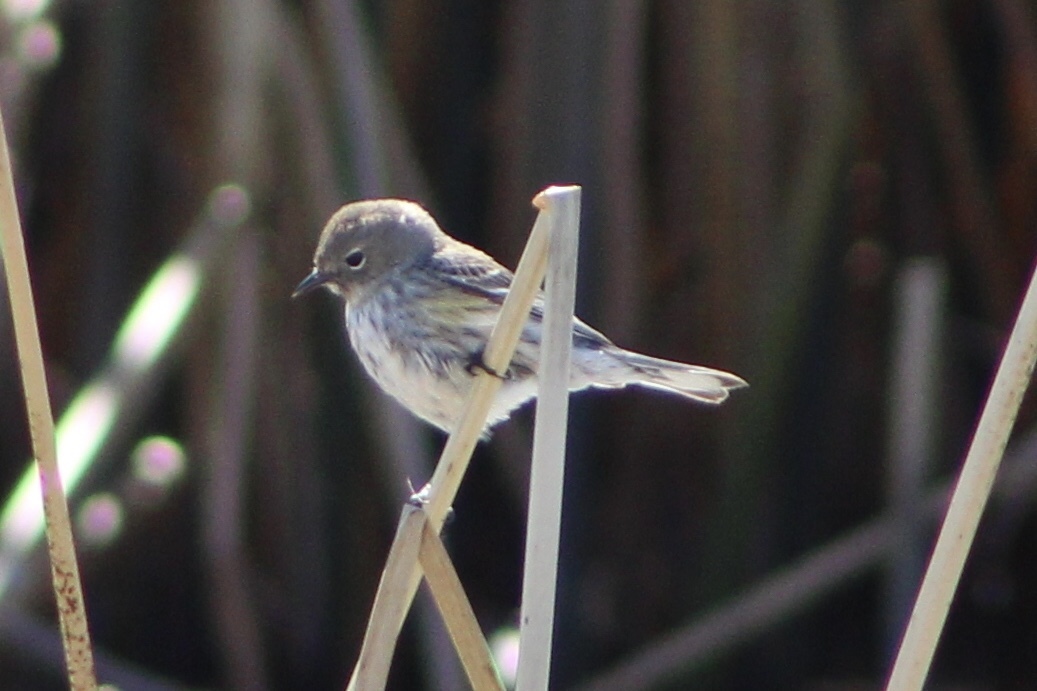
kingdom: Animalia
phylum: Chordata
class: Aves
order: Passeriformes
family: Parulidae
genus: Setophaga
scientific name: Setophaga coronata
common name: Myrtle warbler
